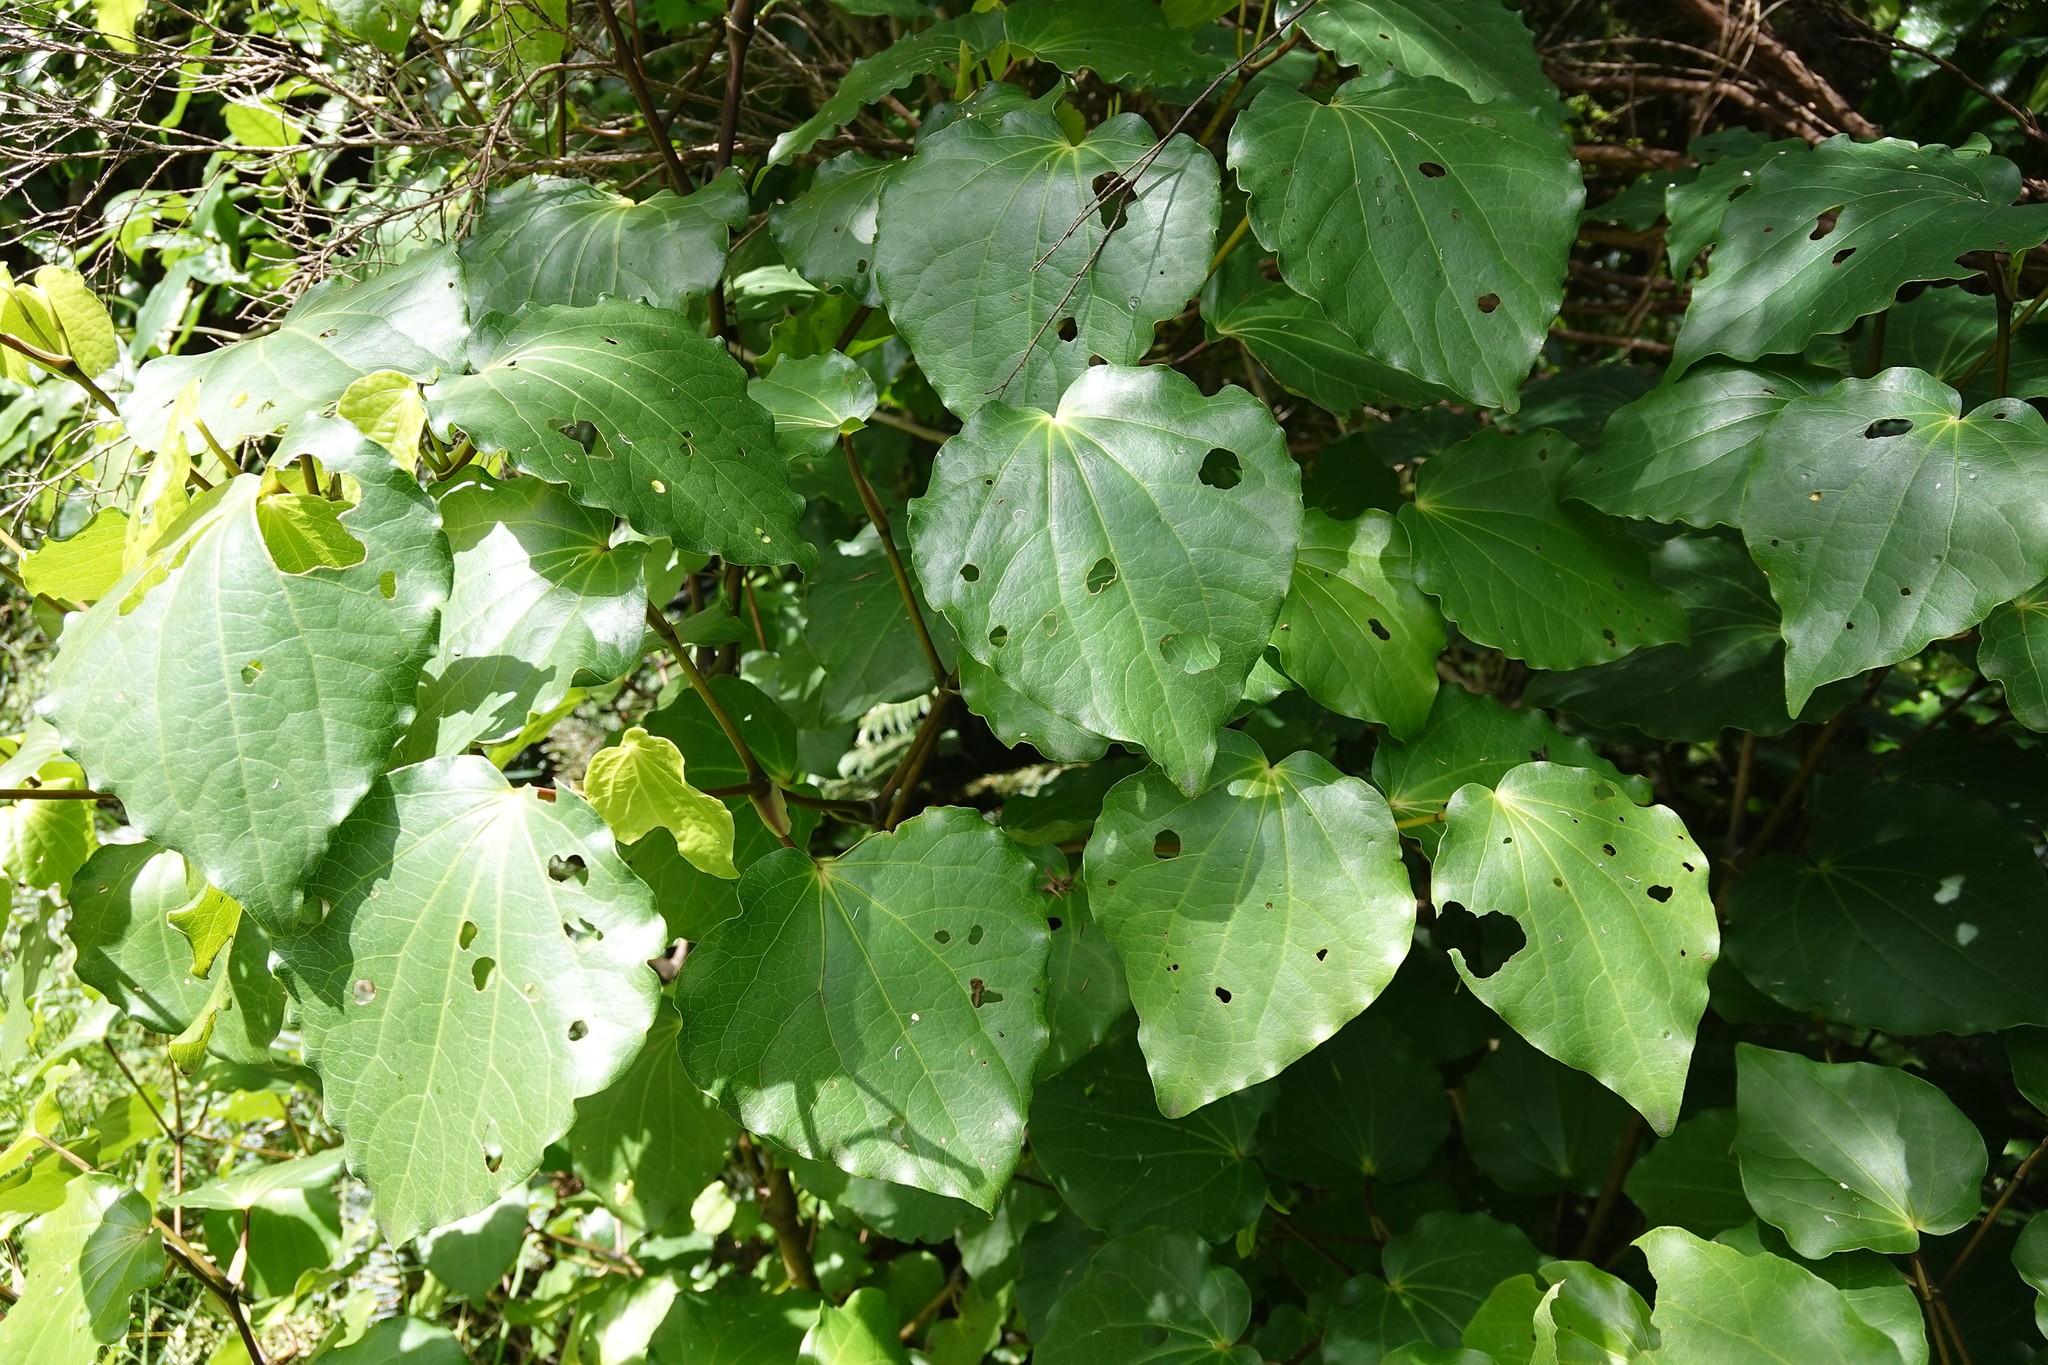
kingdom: Plantae
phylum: Tracheophyta
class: Magnoliopsida
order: Piperales
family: Piperaceae
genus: Macropiper
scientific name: Macropiper excelsum
